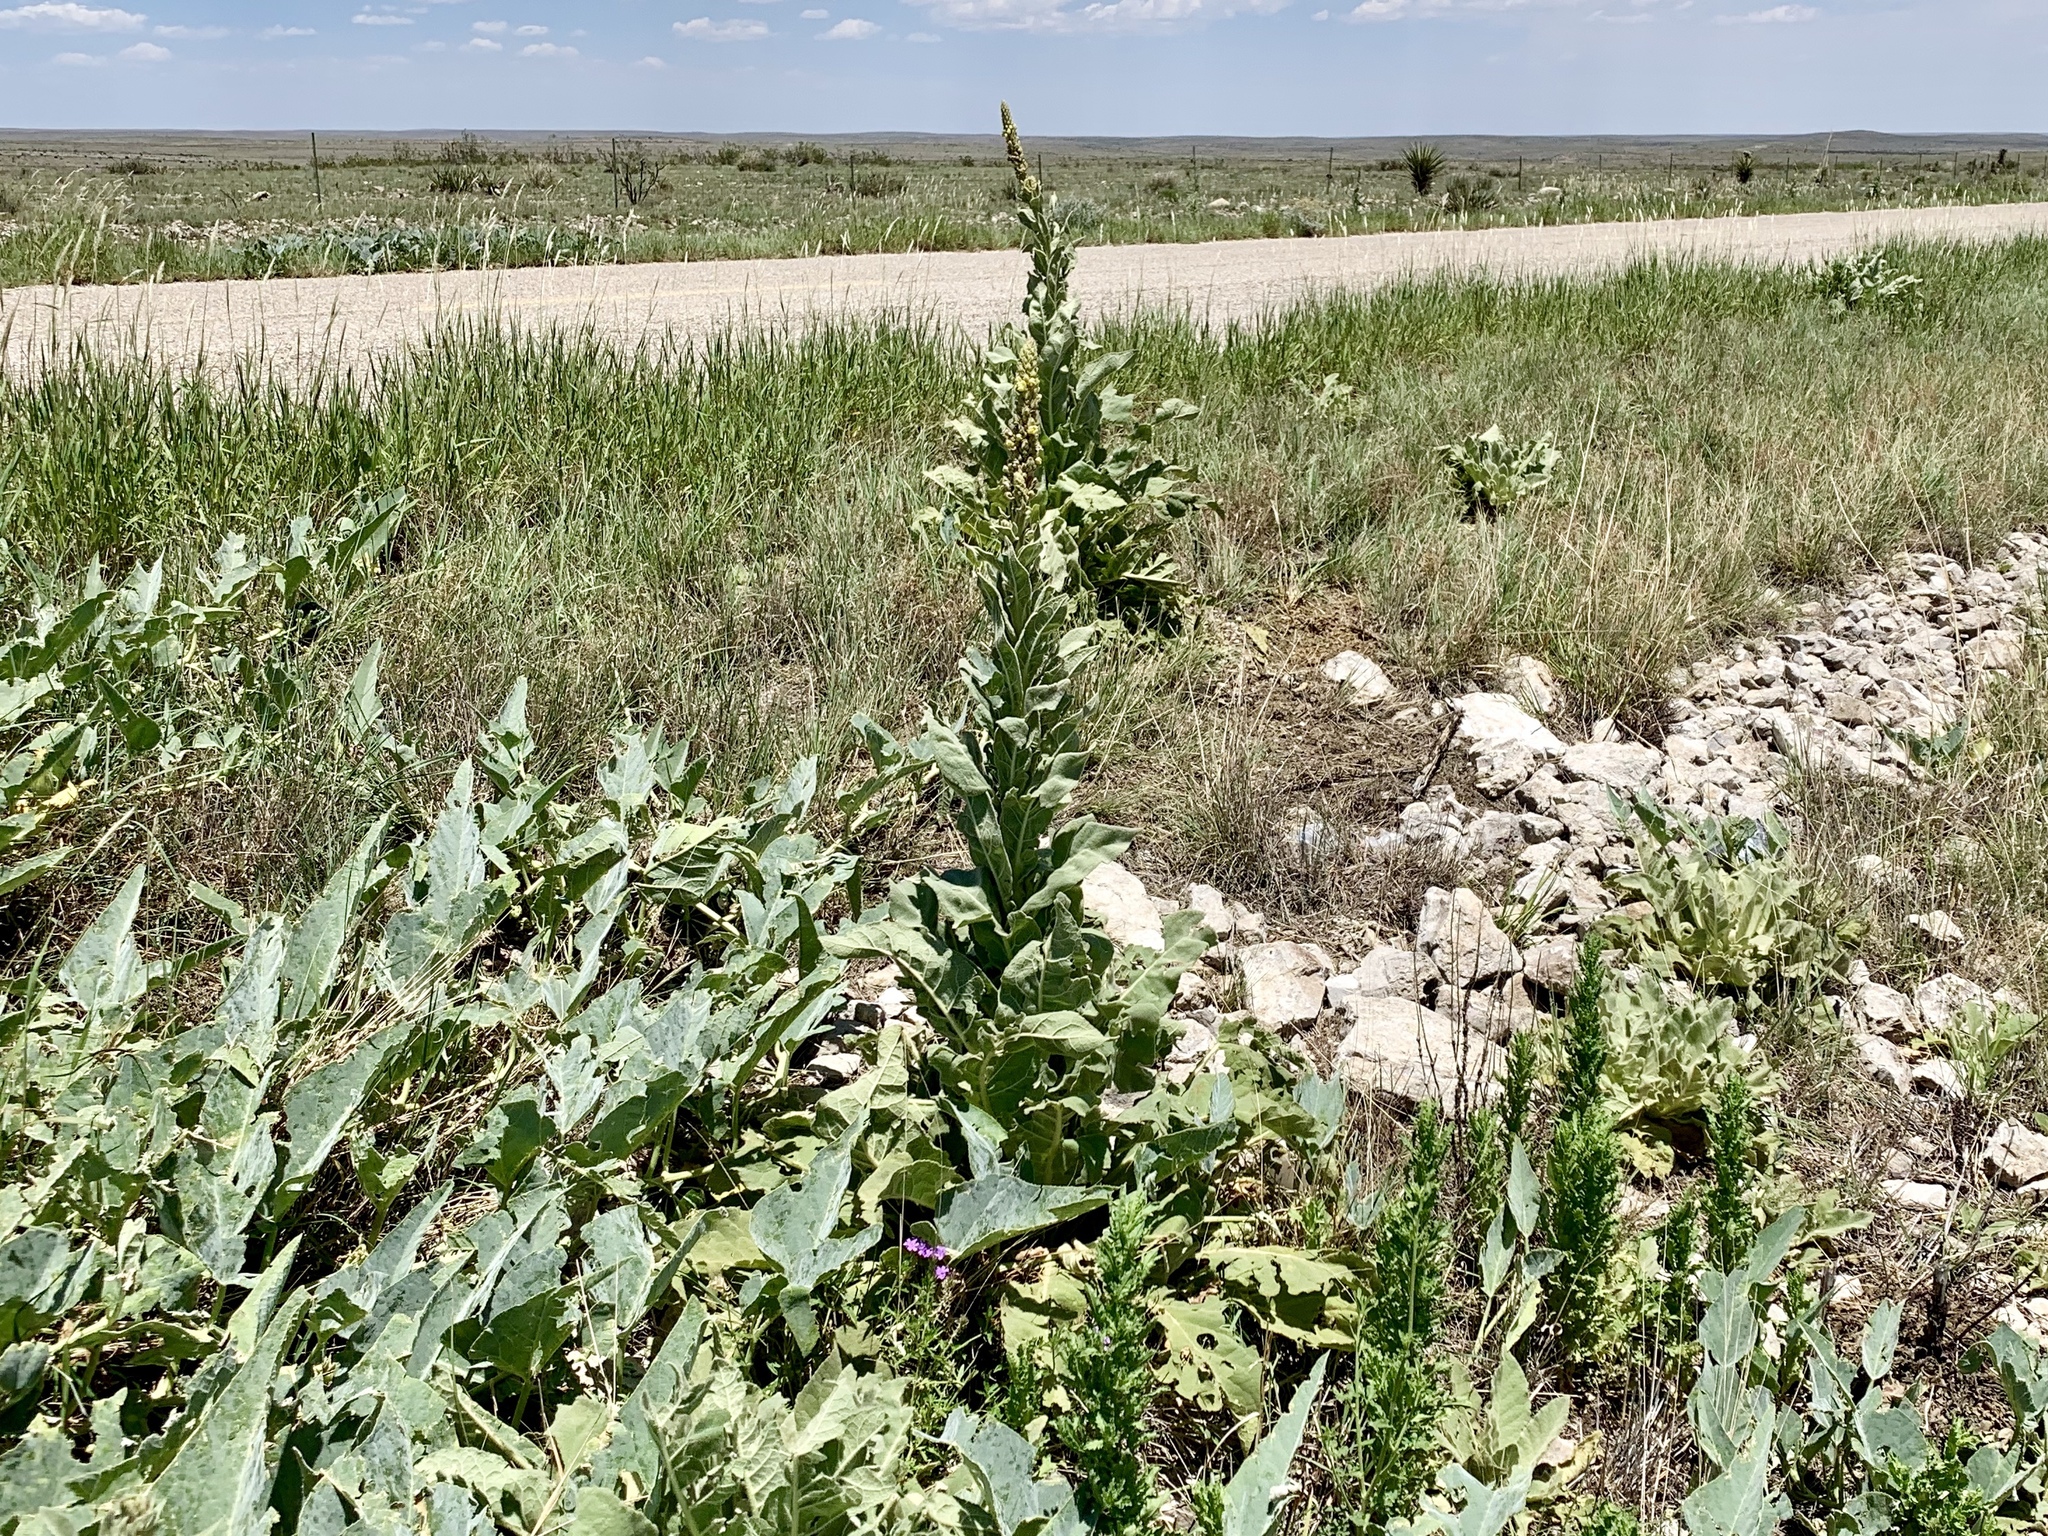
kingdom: Plantae
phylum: Tracheophyta
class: Magnoliopsida
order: Lamiales
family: Scrophulariaceae
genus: Verbascum
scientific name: Verbascum thapsus
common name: Common mullein
